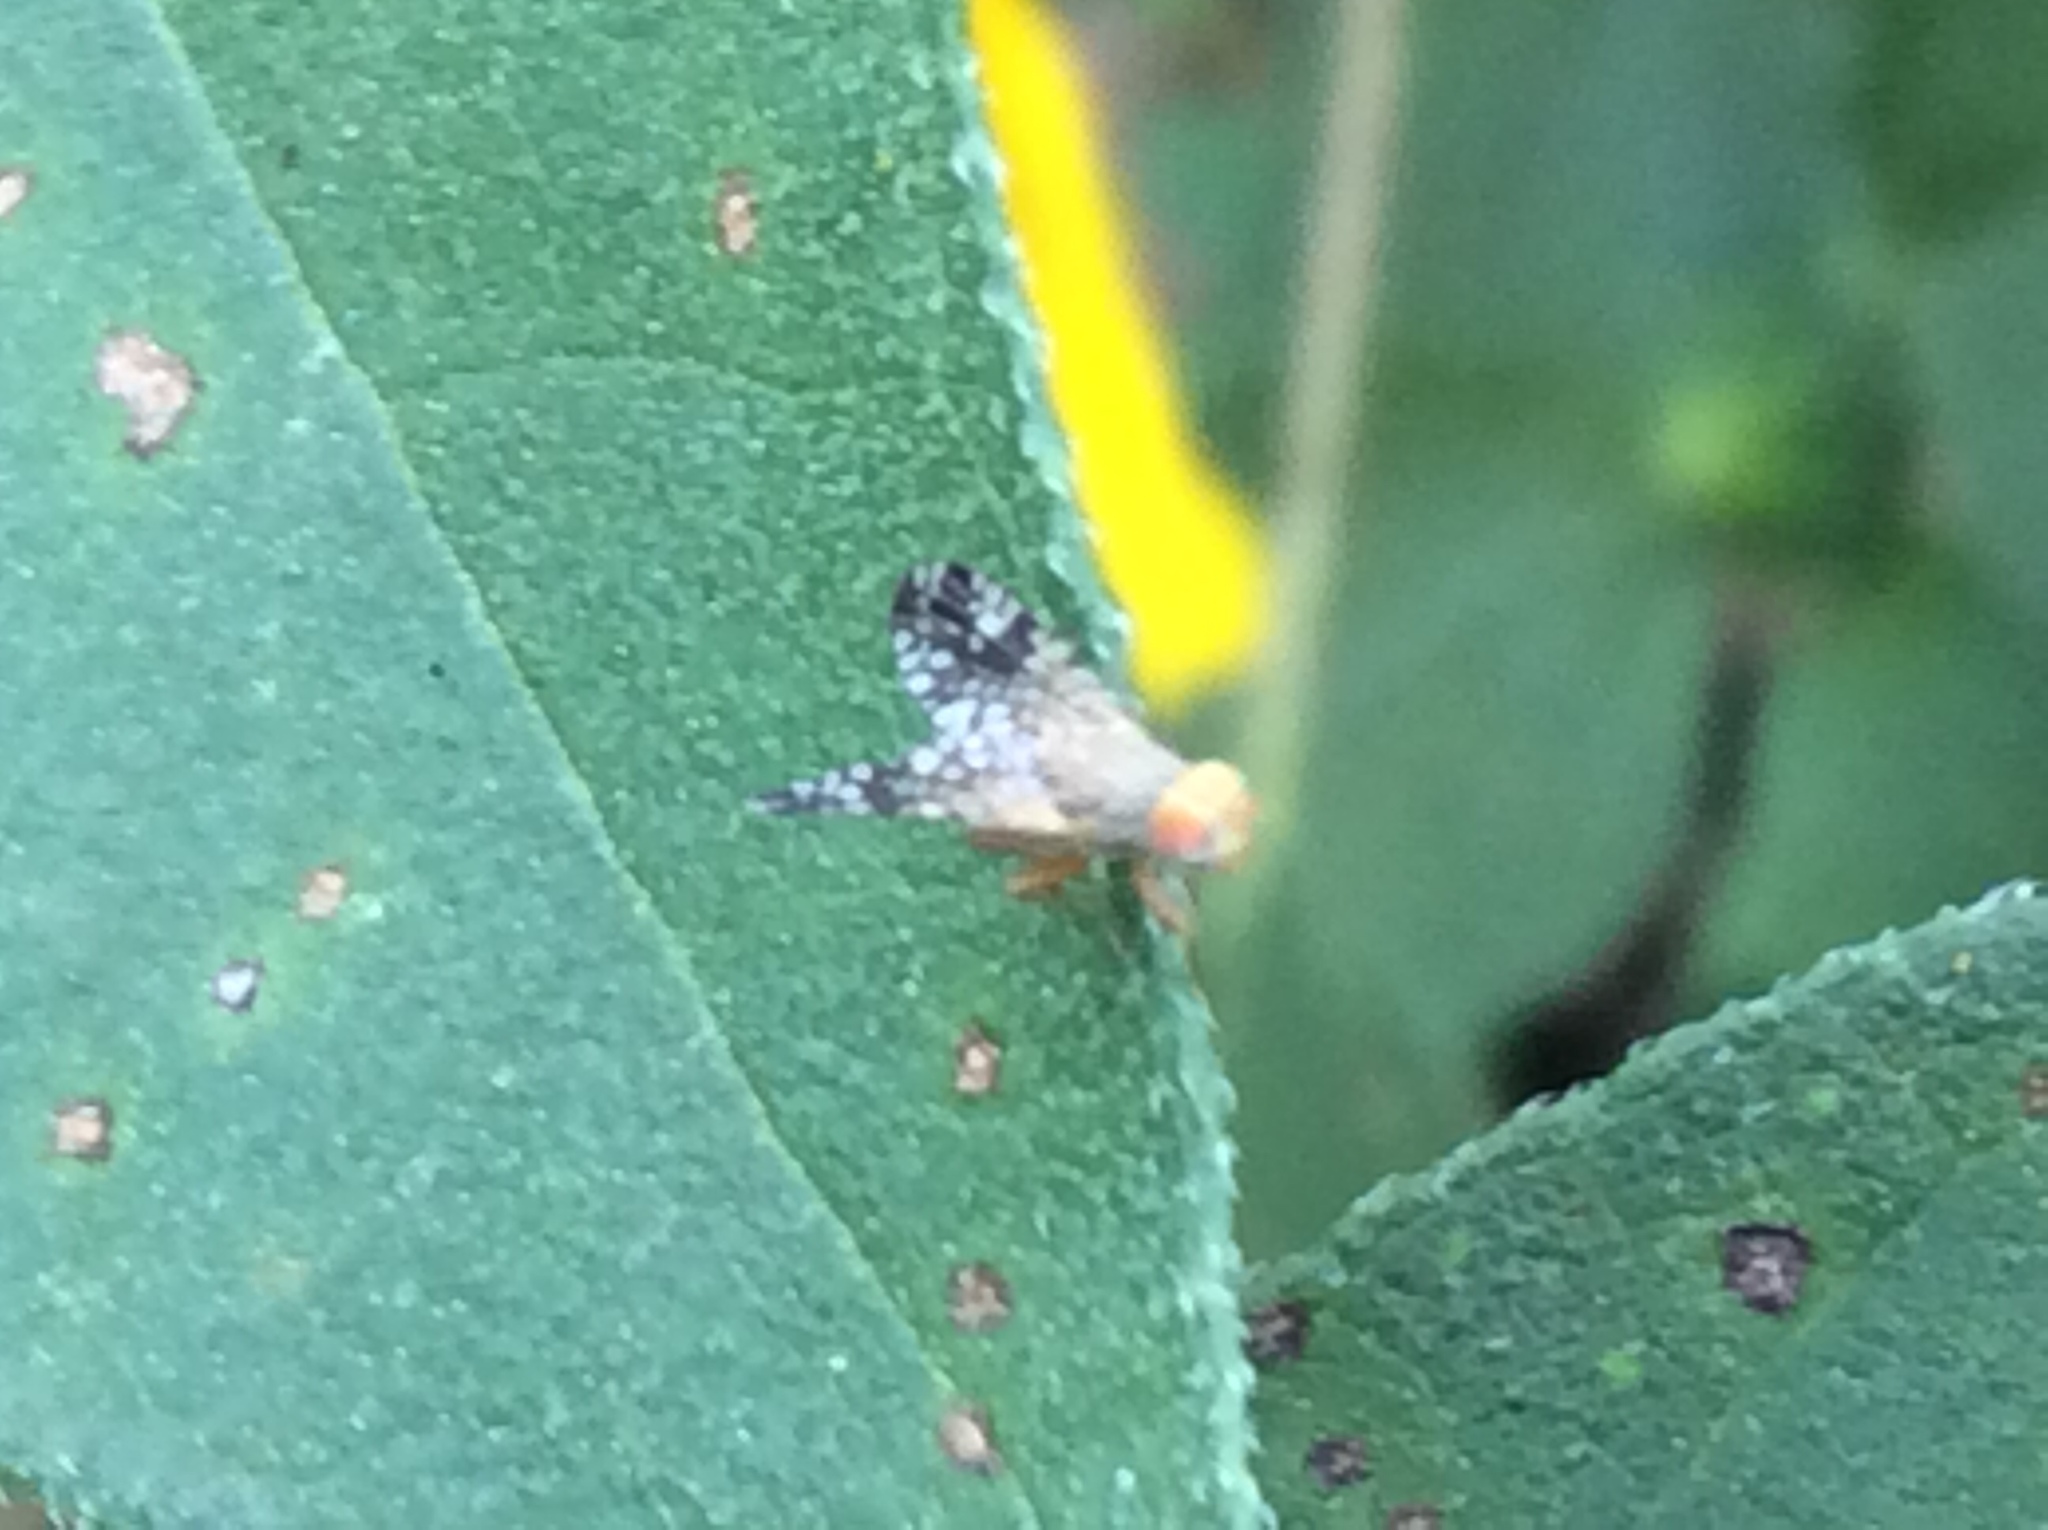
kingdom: Animalia
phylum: Arthropoda
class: Insecta
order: Diptera
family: Tephritidae
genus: Neotephritis
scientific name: Neotephritis finalis
